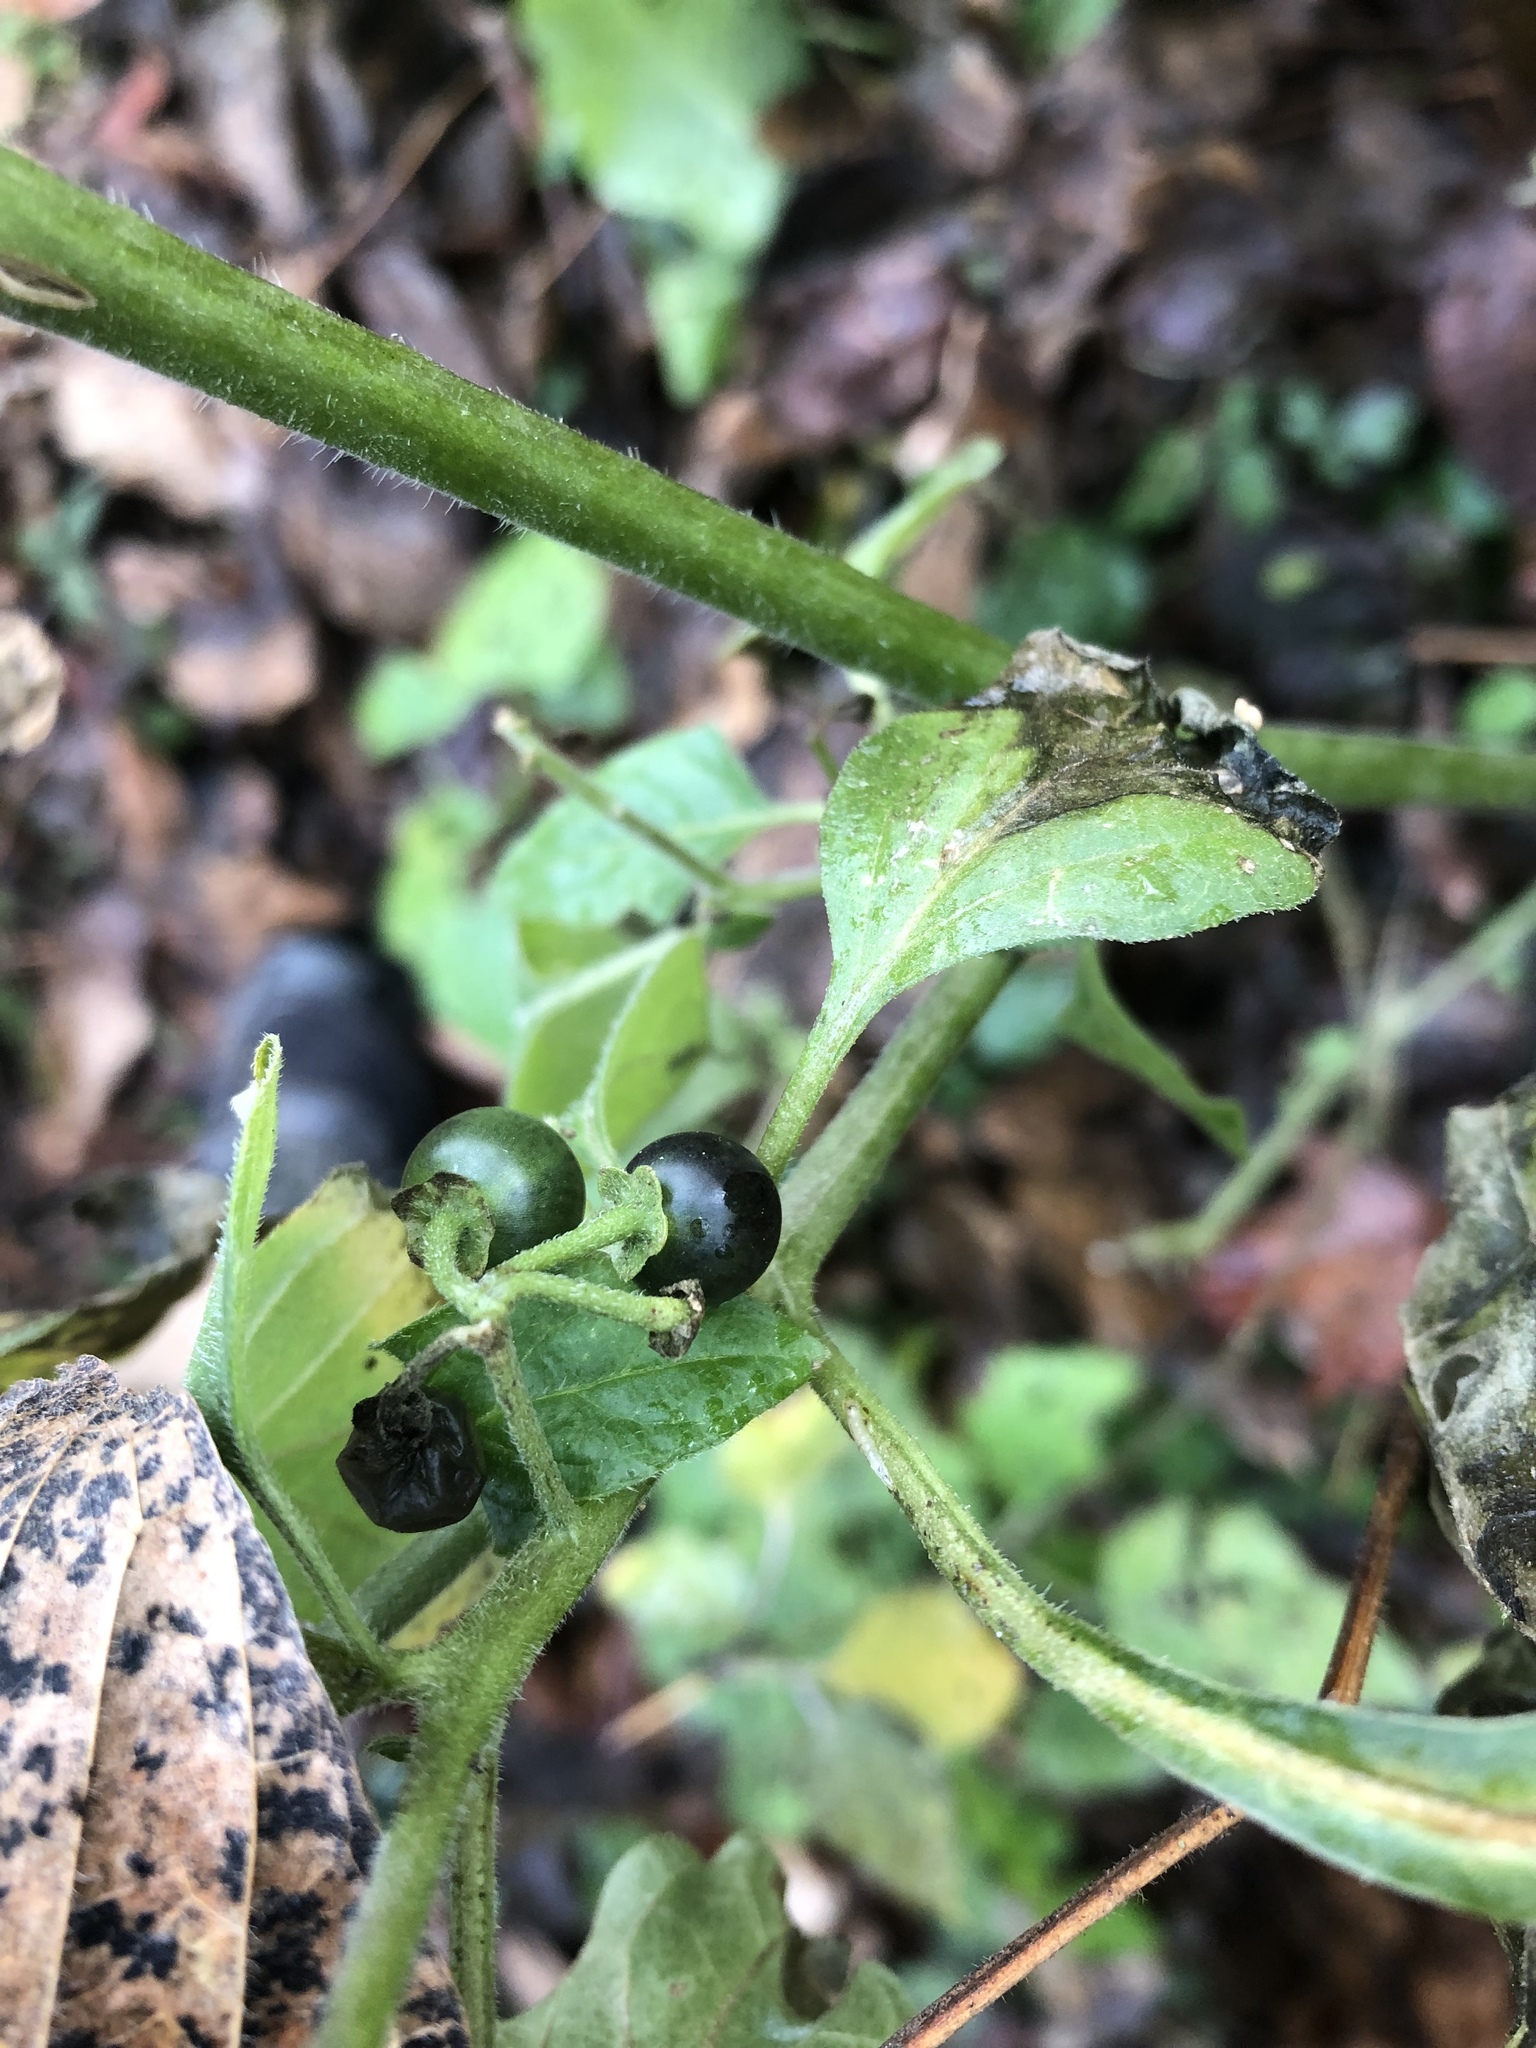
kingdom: Plantae
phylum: Tracheophyta
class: Magnoliopsida
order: Solanales
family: Solanaceae
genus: Solanum
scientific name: Solanum americanum
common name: American black nightshade
